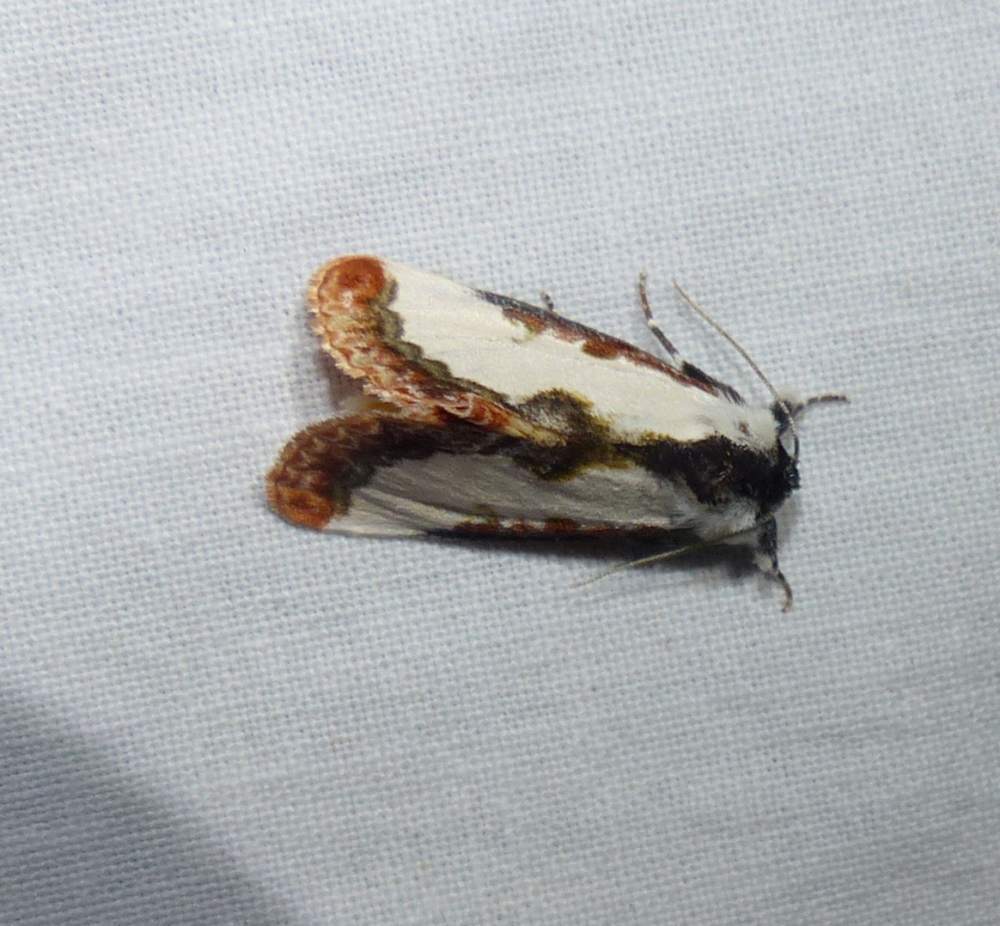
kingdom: Animalia
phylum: Arthropoda
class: Insecta
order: Lepidoptera
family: Noctuidae
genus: Eudryas
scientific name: Eudryas unio
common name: Pearly wood-nymph
